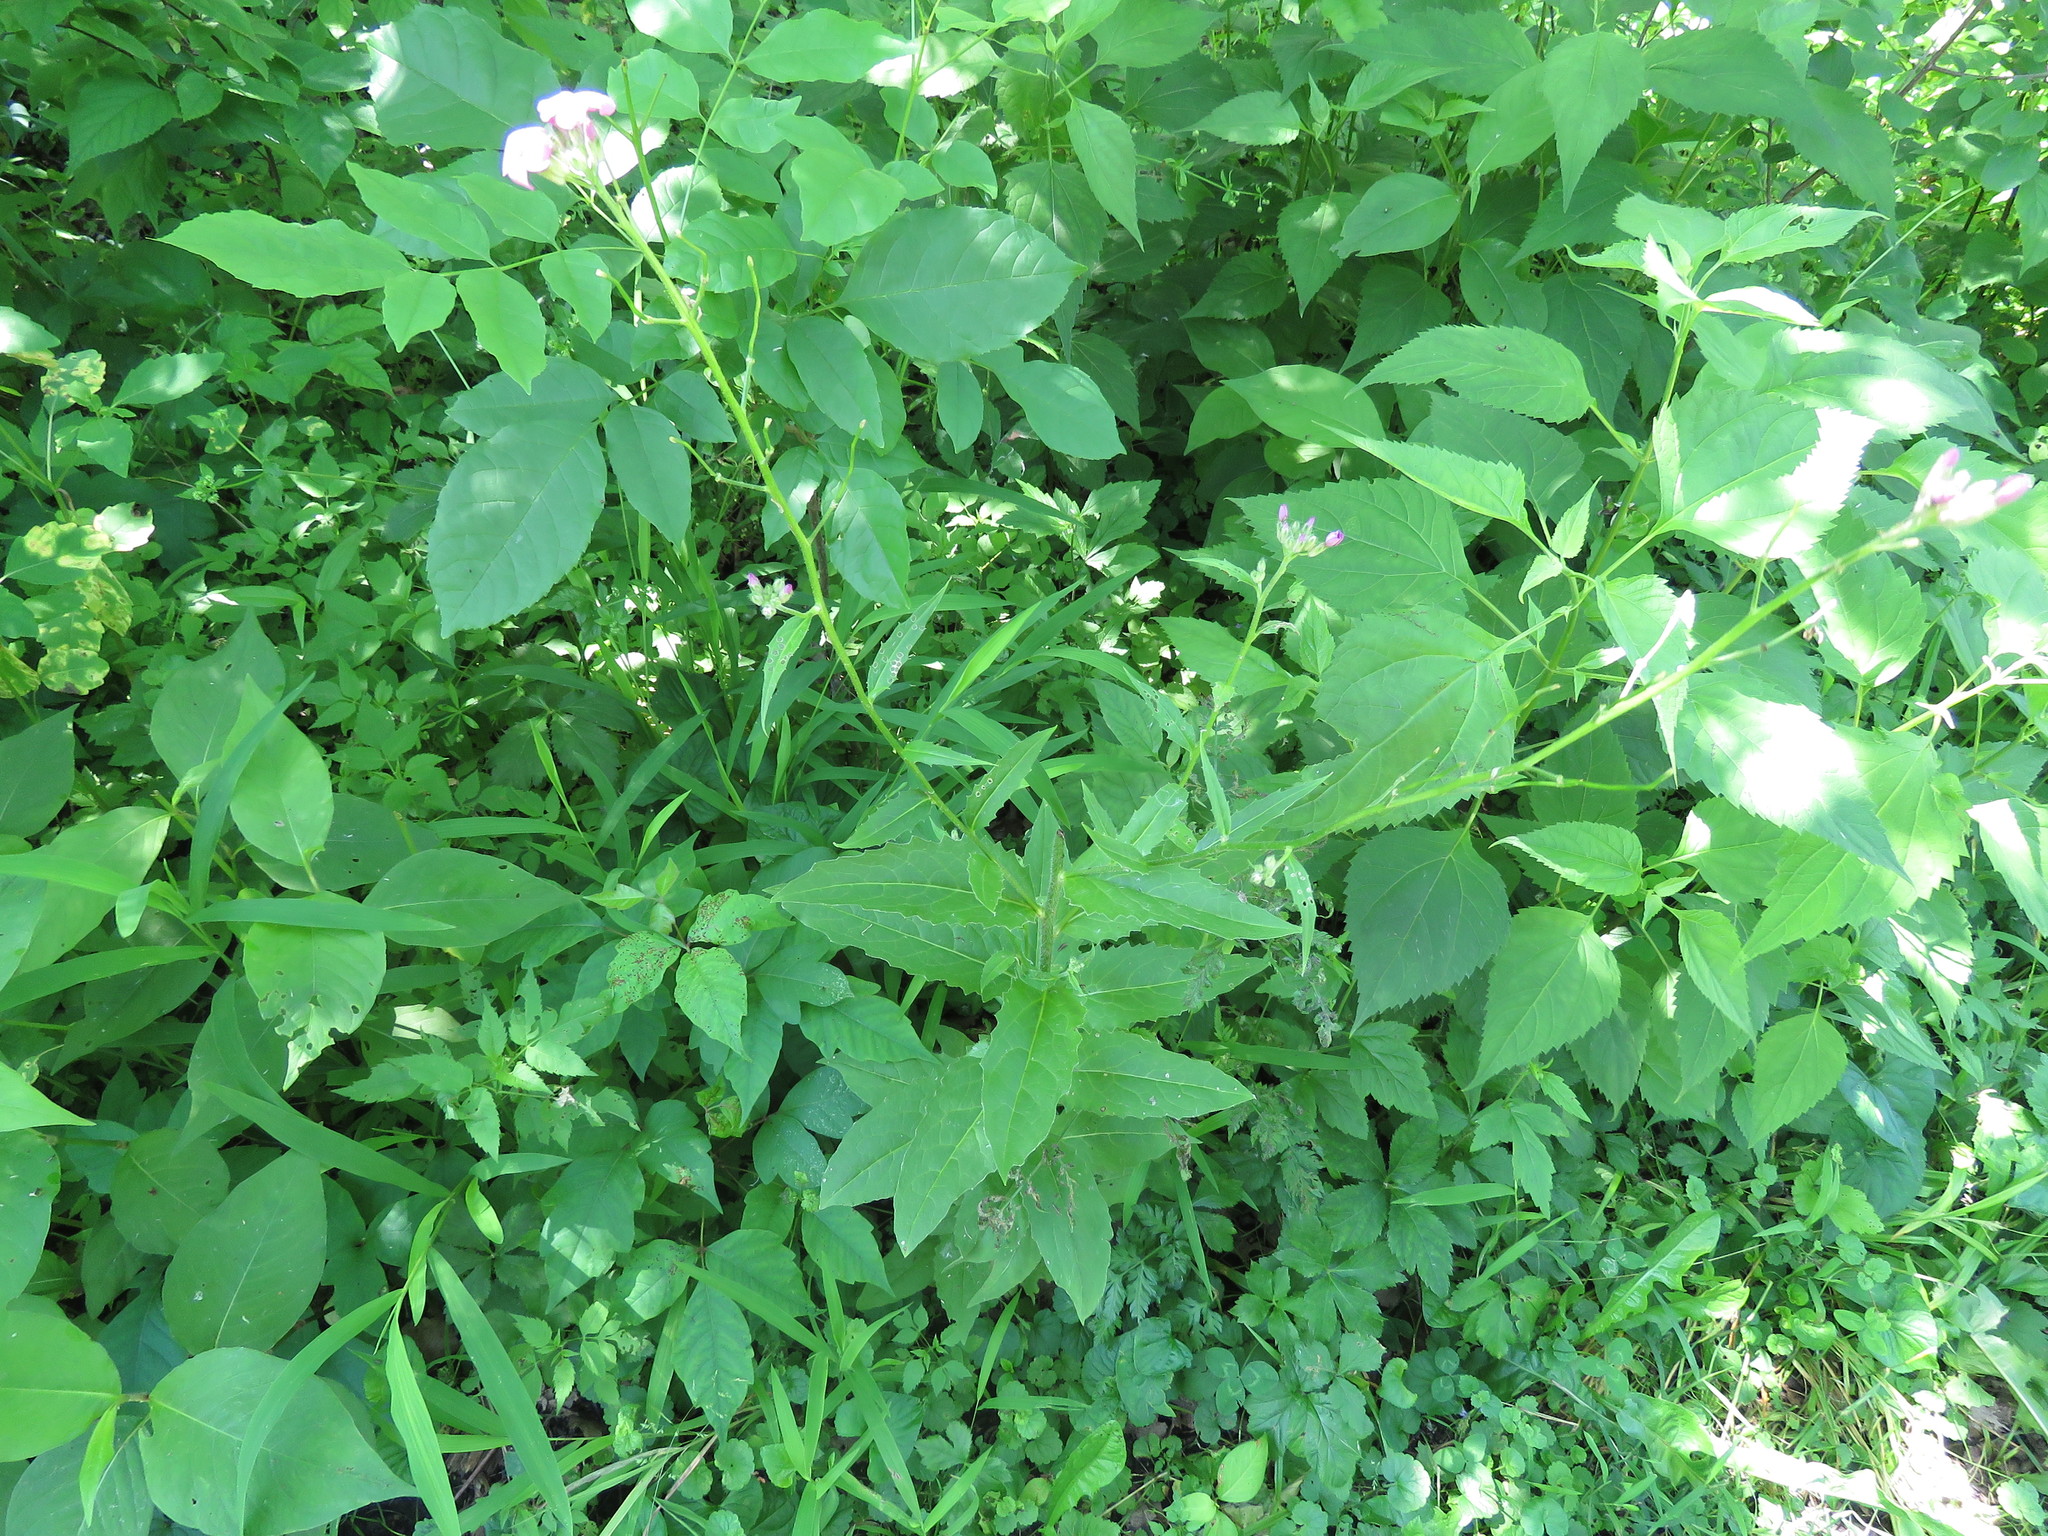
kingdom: Plantae
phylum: Tracheophyta
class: Magnoliopsida
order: Brassicales
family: Brassicaceae
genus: Hesperis
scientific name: Hesperis matronalis
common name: Dame's-violet
